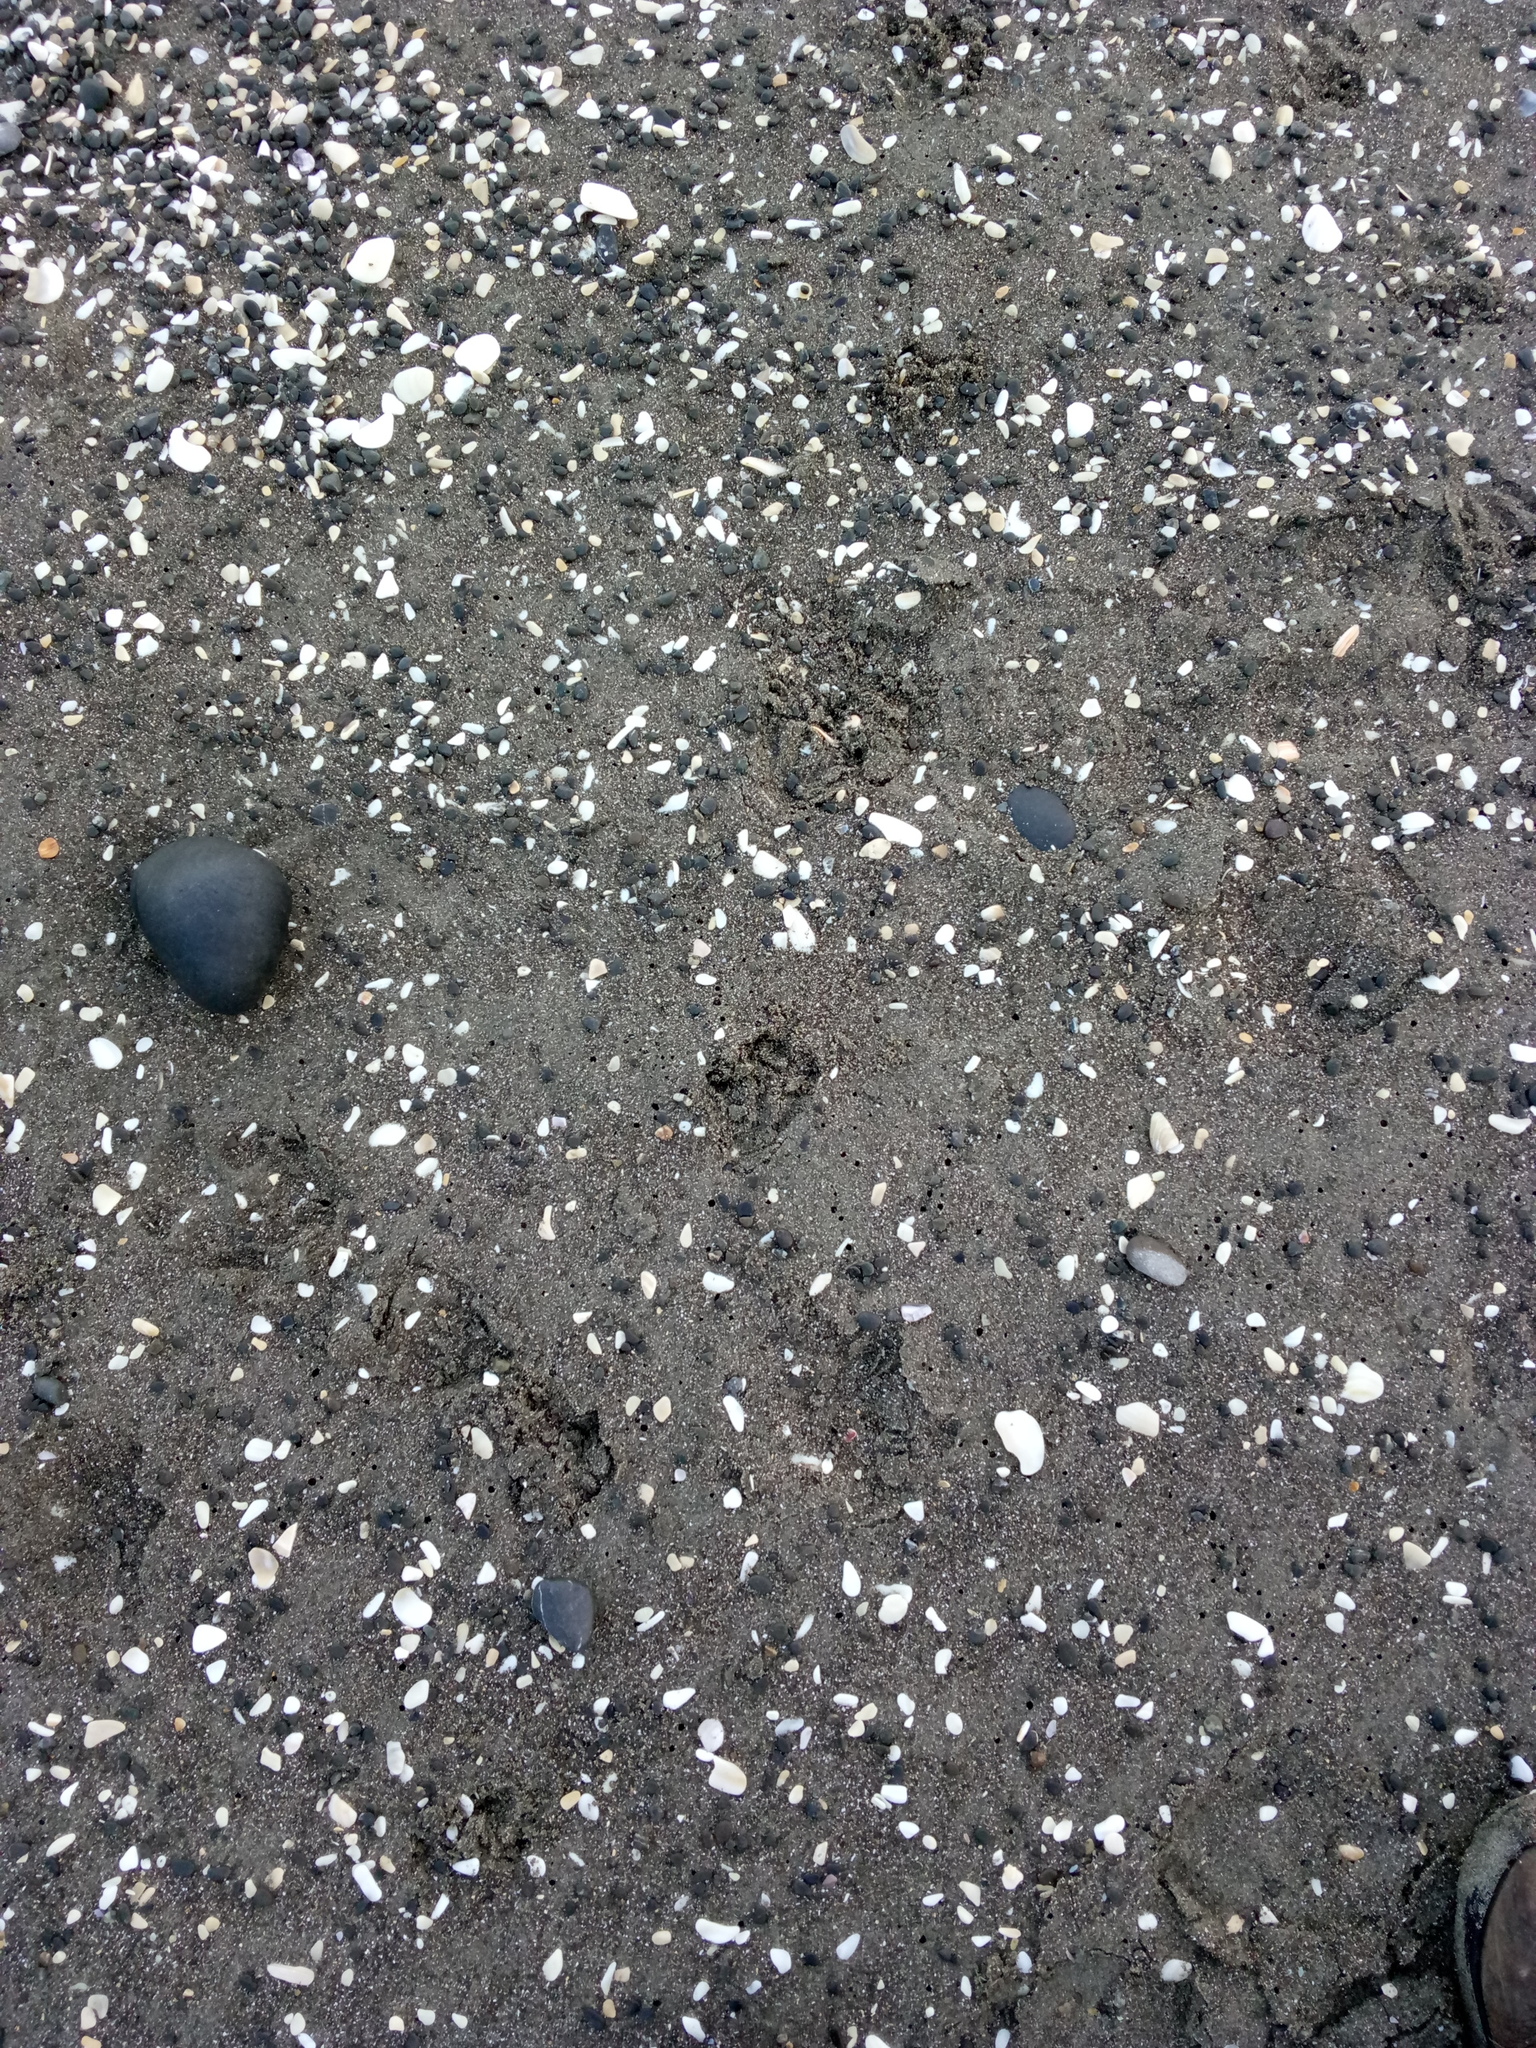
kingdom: Animalia
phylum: Chordata
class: Aves
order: Sphenisciformes
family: Spheniscidae
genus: Eudyptula
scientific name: Eudyptula minor
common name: Little penguin
